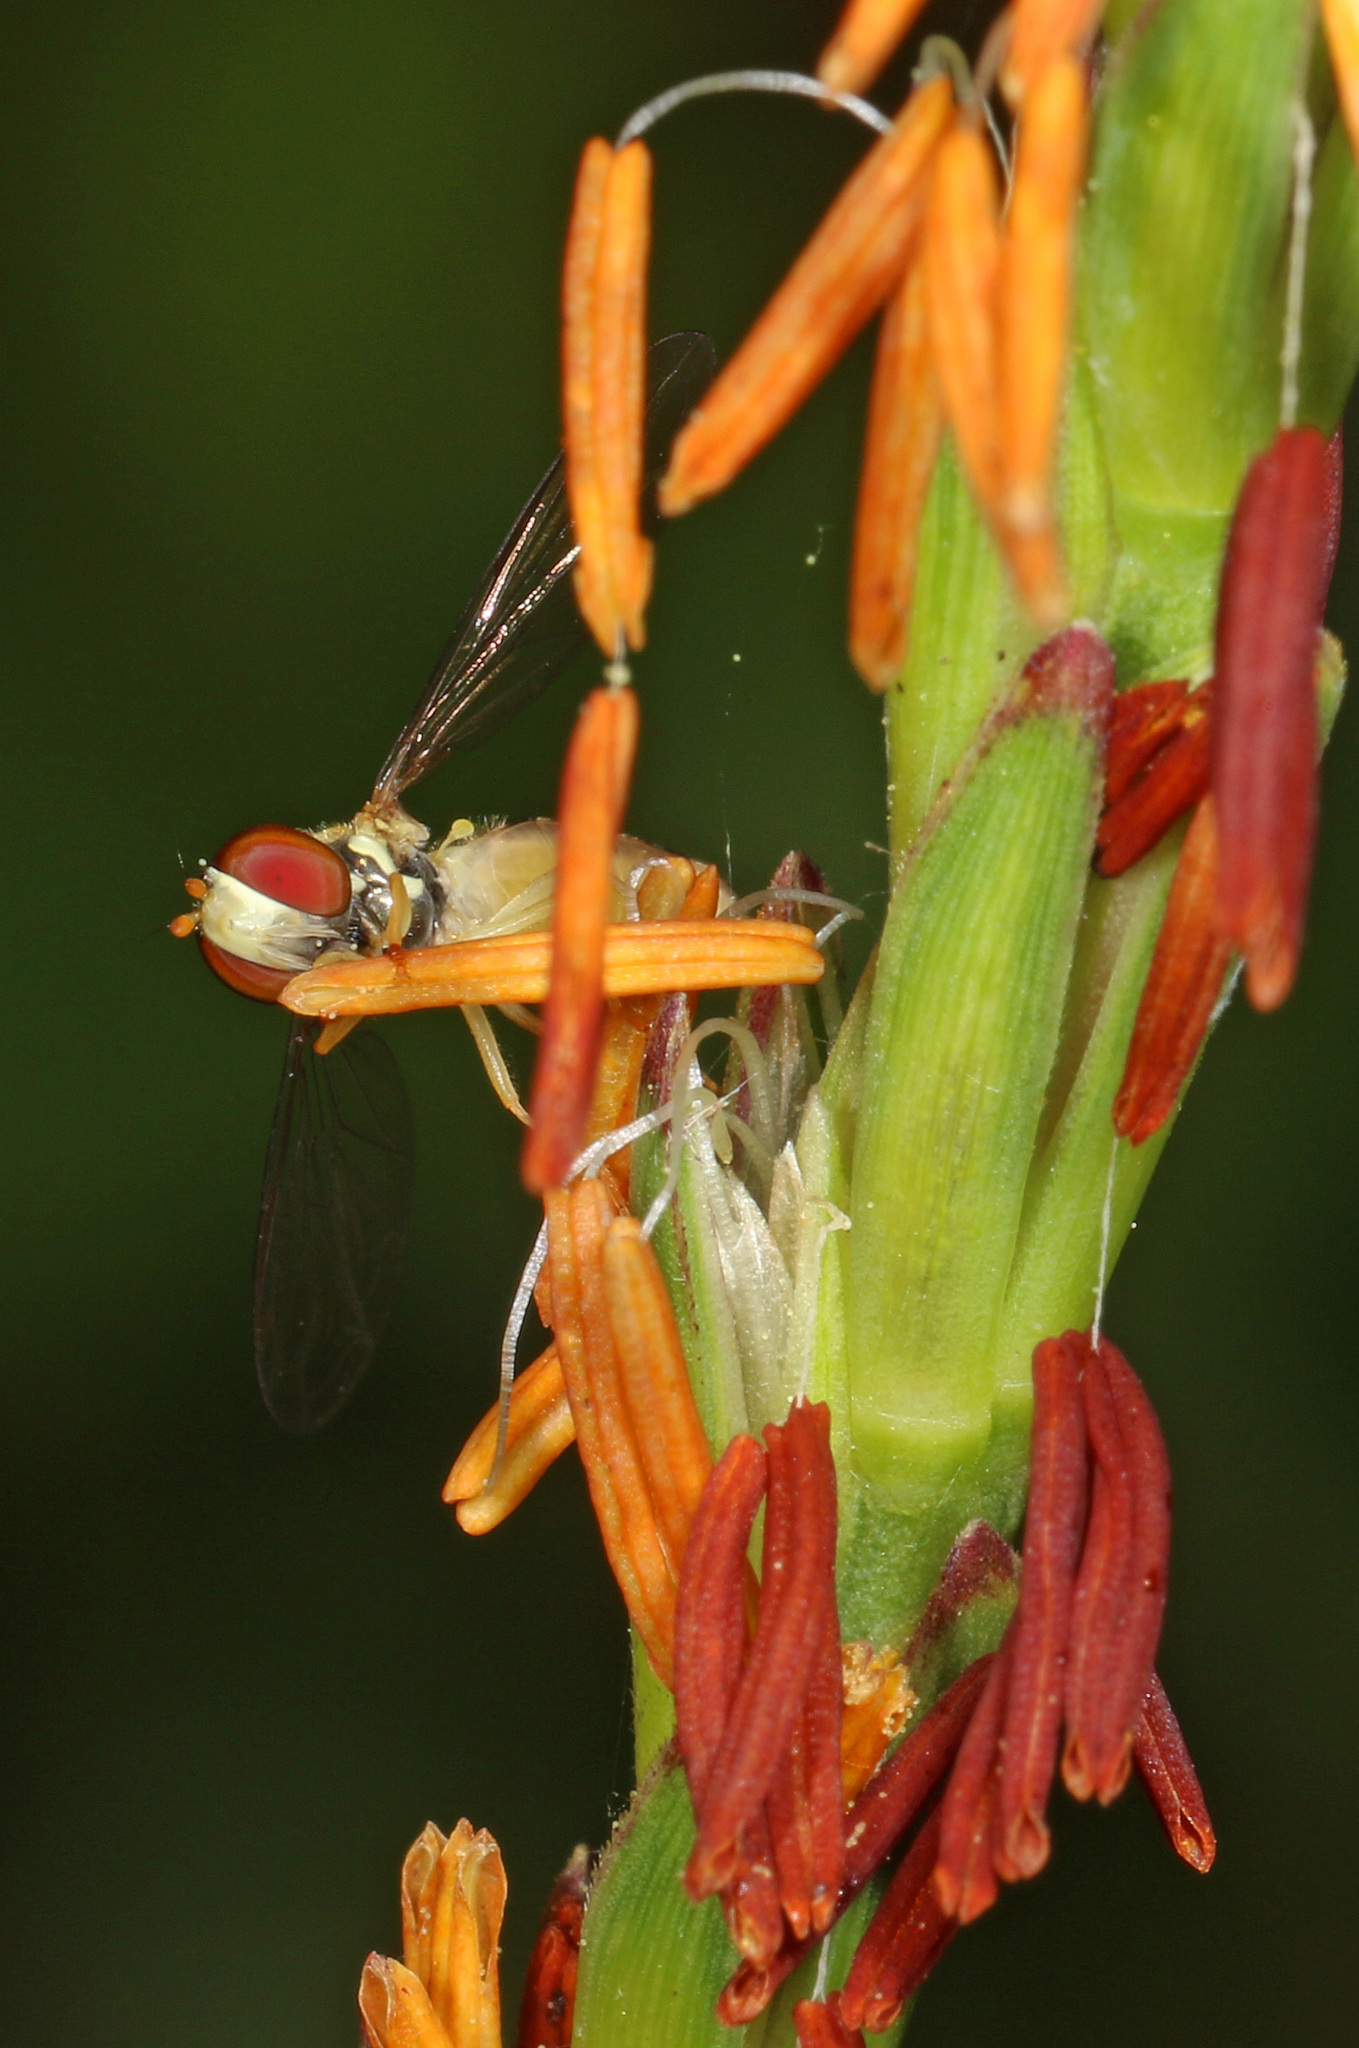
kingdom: Animalia
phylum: Arthropoda
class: Insecta
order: Diptera
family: Syrphidae
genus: Toxomerus
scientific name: Toxomerus
